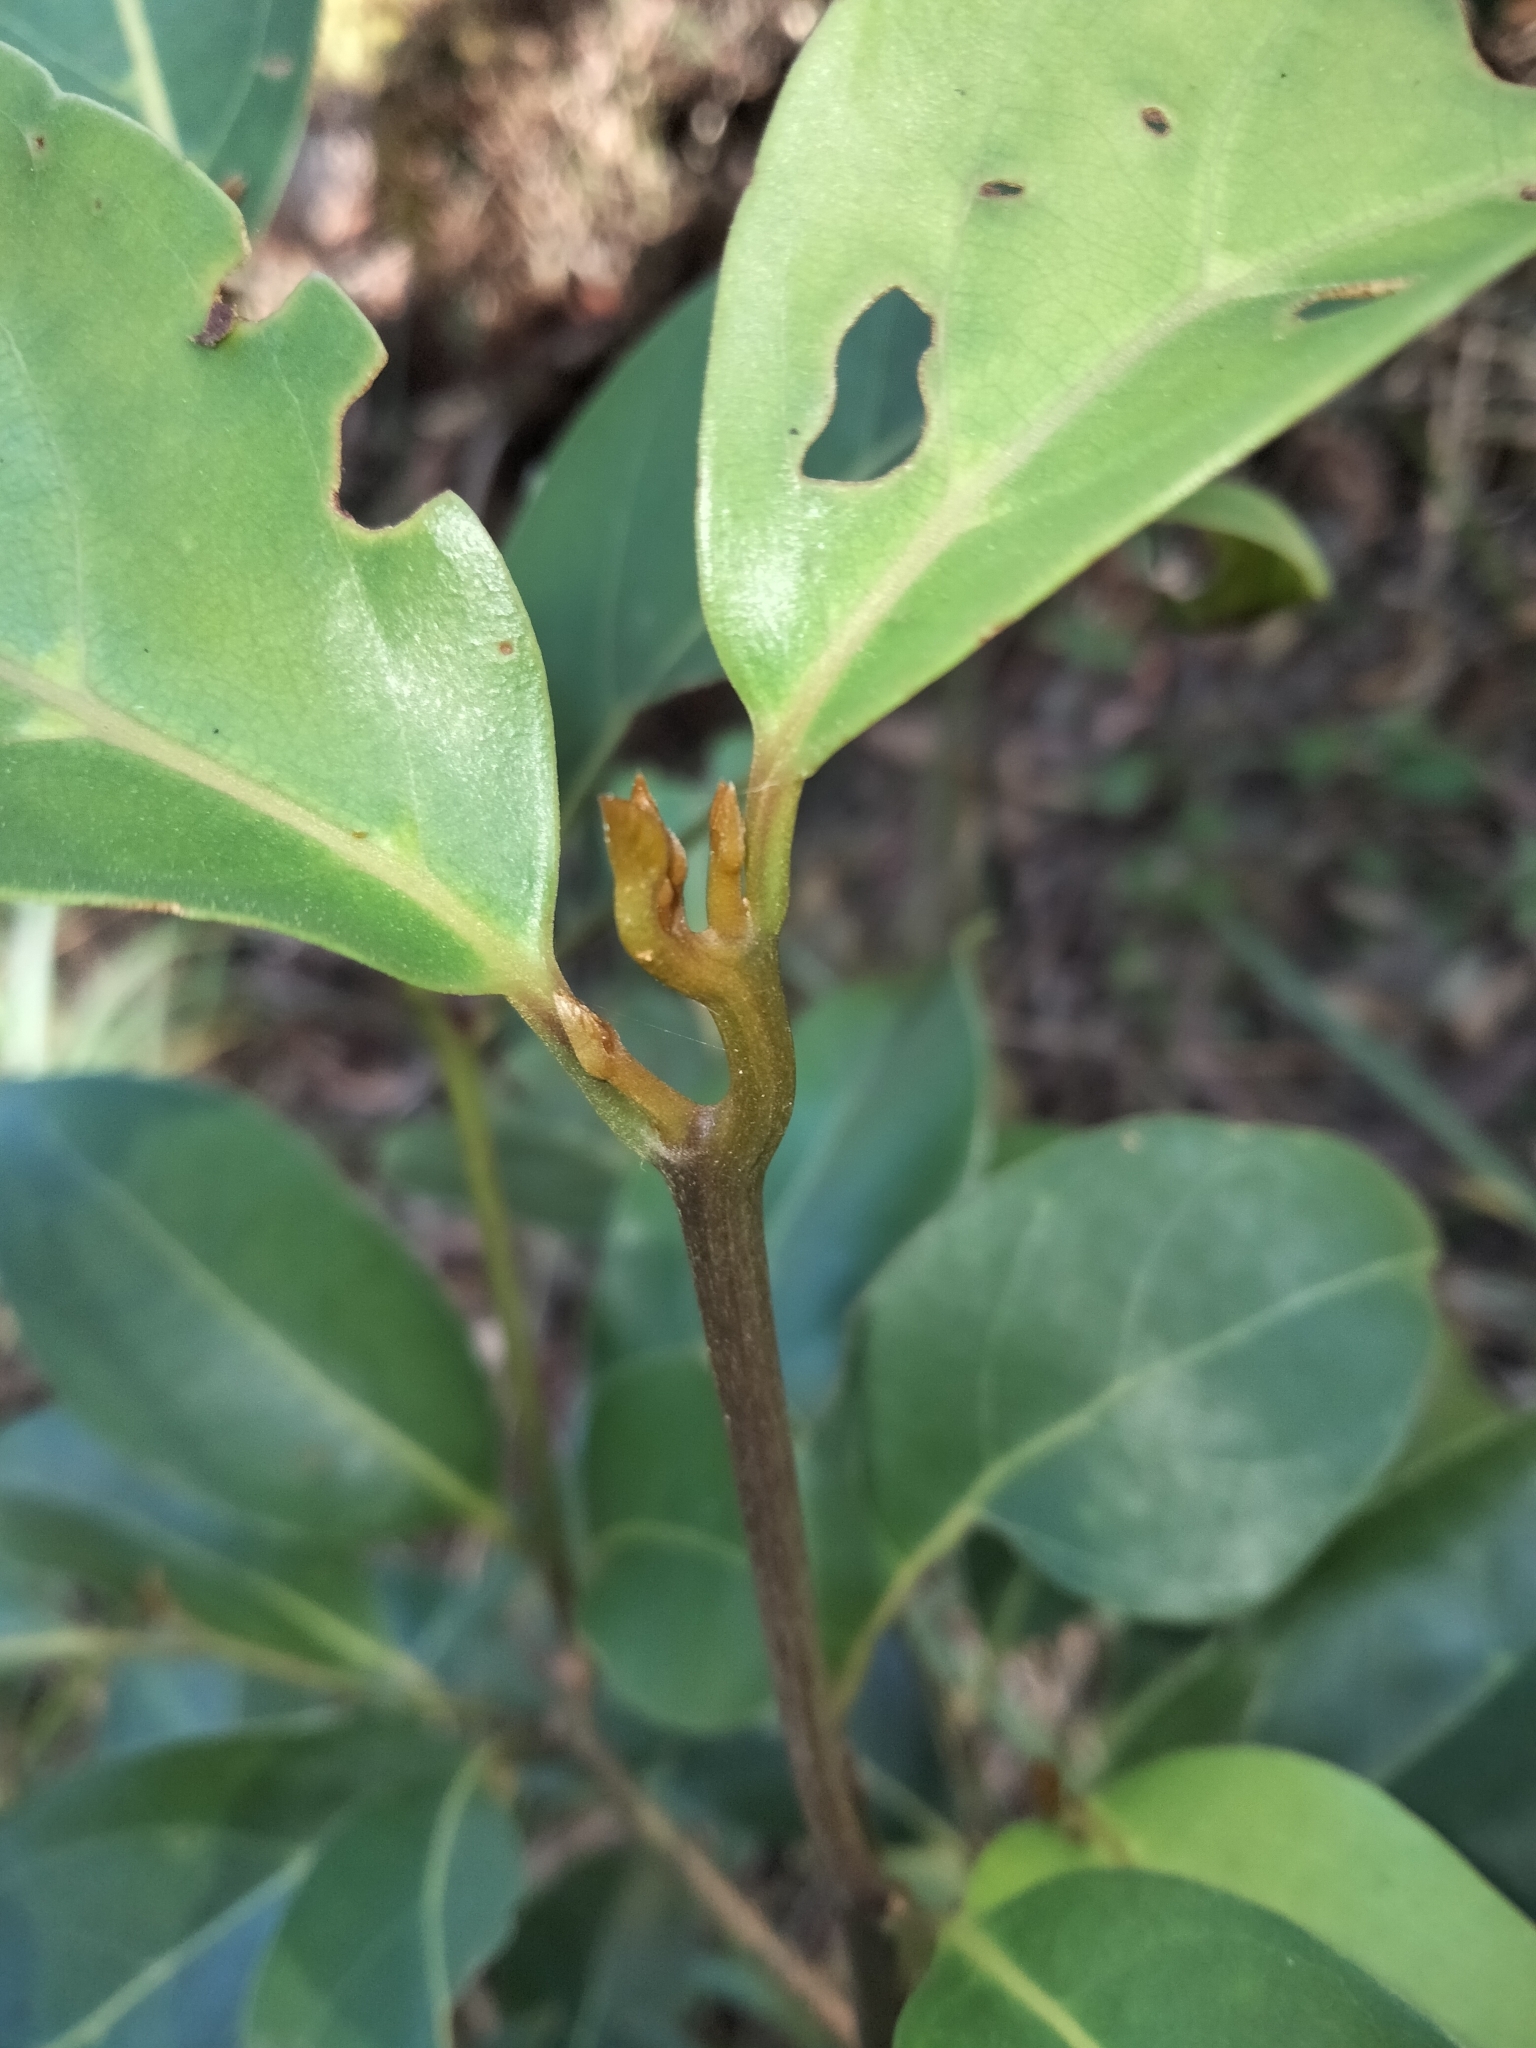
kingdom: Plantae
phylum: Tracheophyta
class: Magnoliopsida
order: Laurales
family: Lauraceae
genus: Endiandra
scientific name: Endiandra discolor
